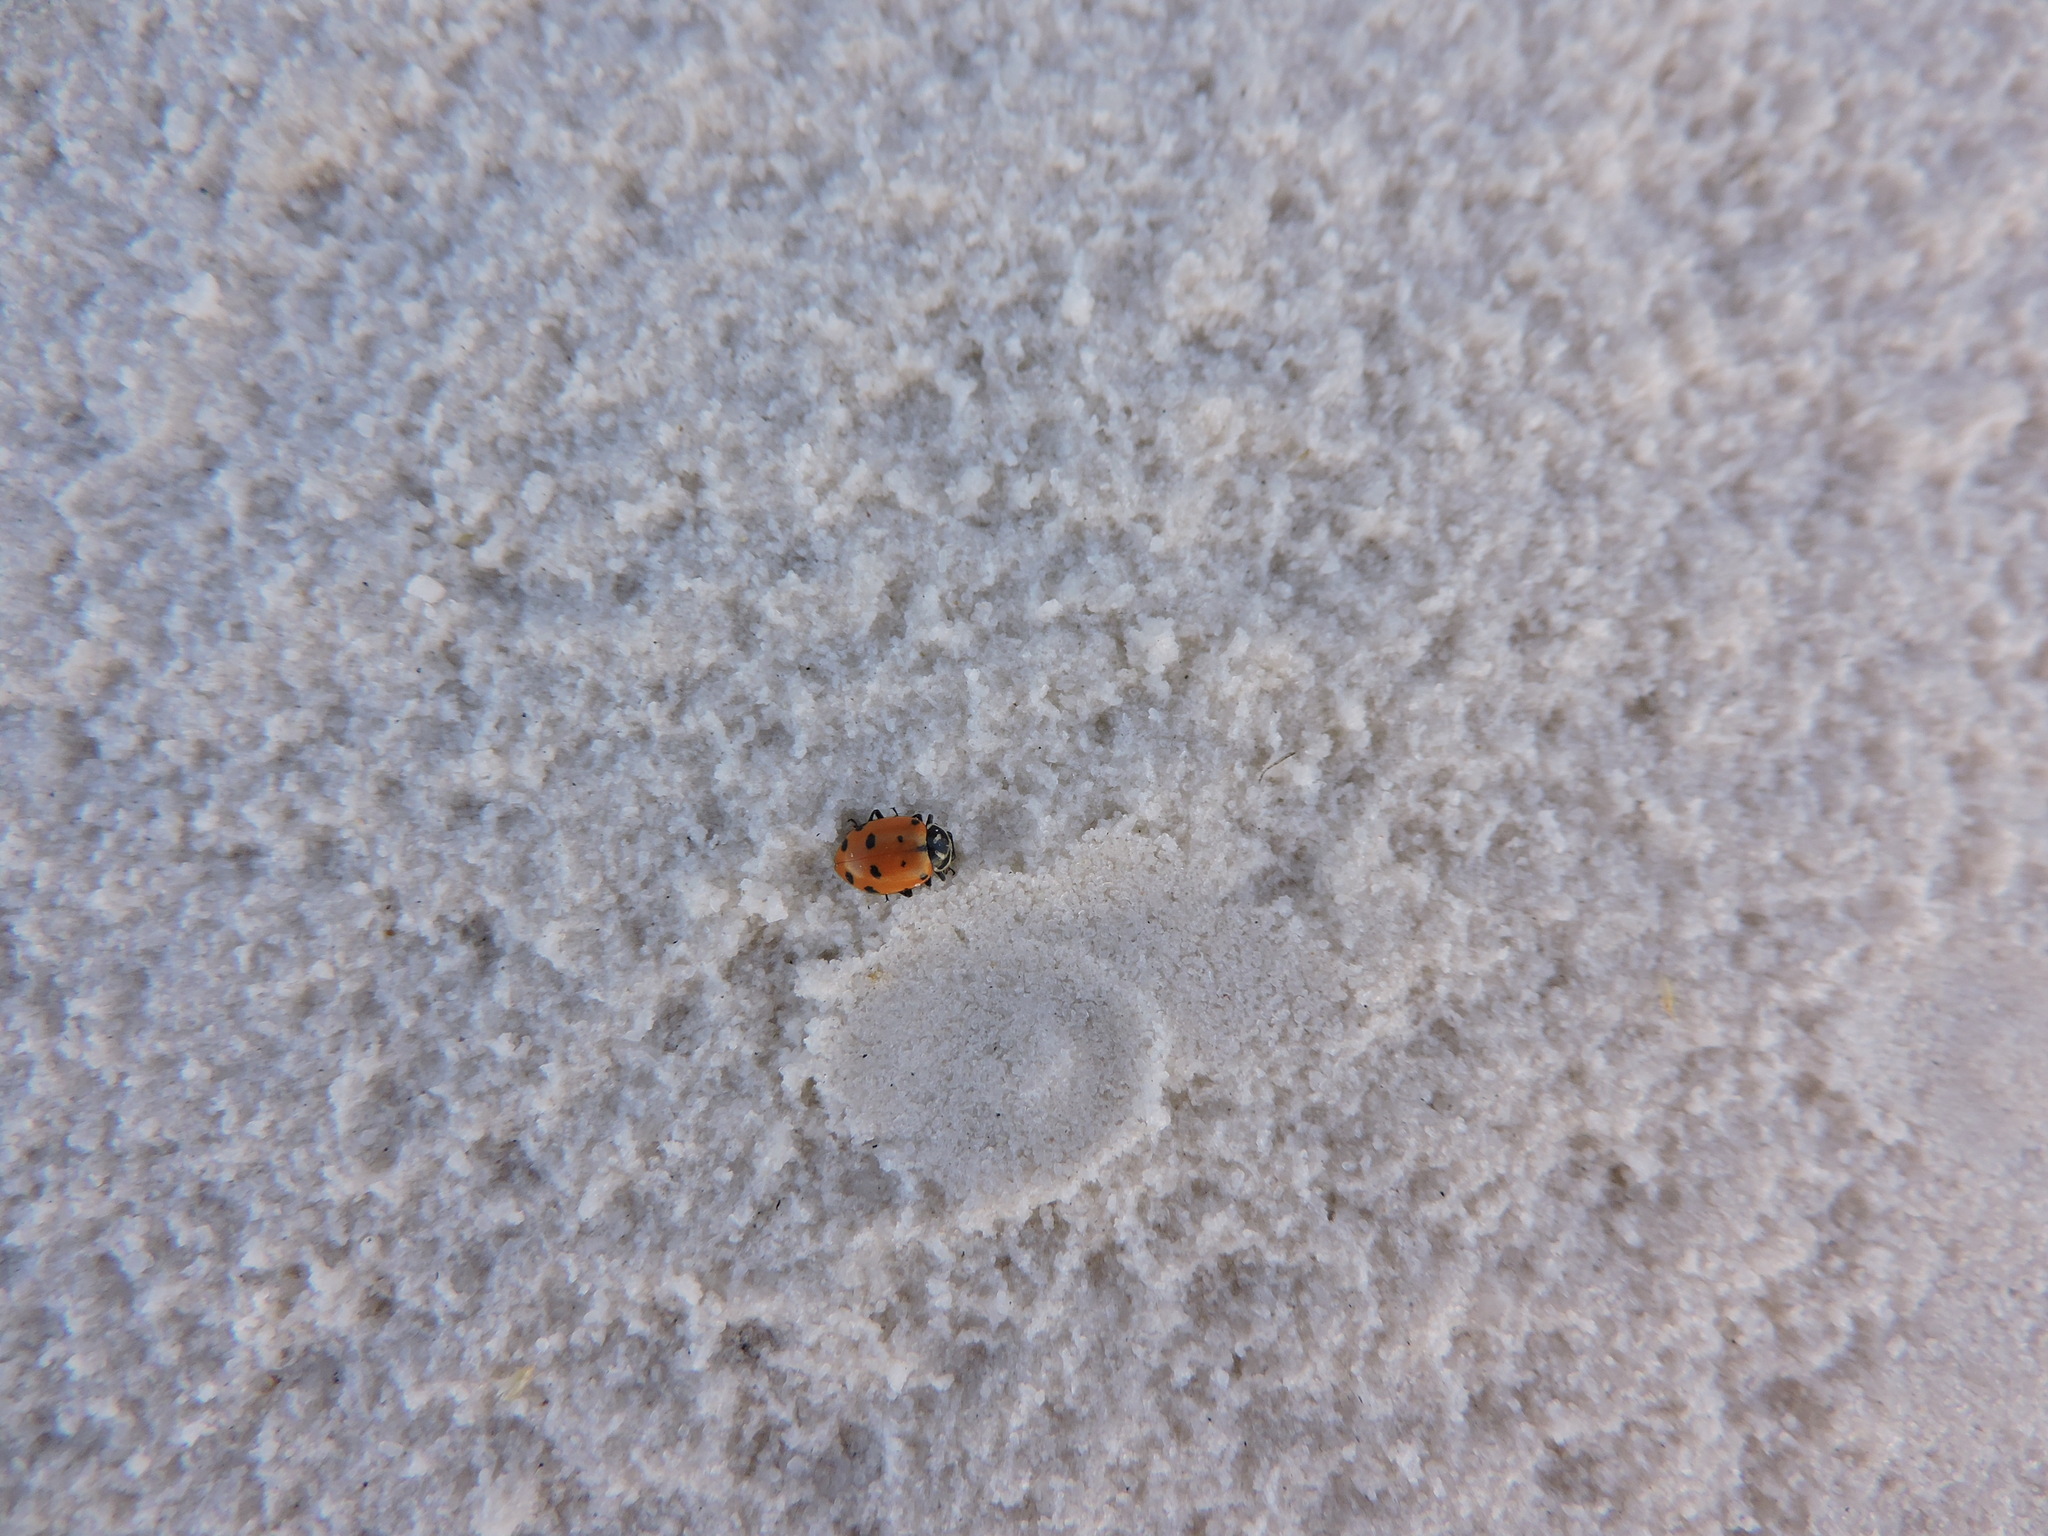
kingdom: Animalia
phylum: Arthropoda
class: Insecta
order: Coleoptera
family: Coccinellidae
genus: Hippodamia
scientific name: Hippodamia convergens
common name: Convergent lady beetle
